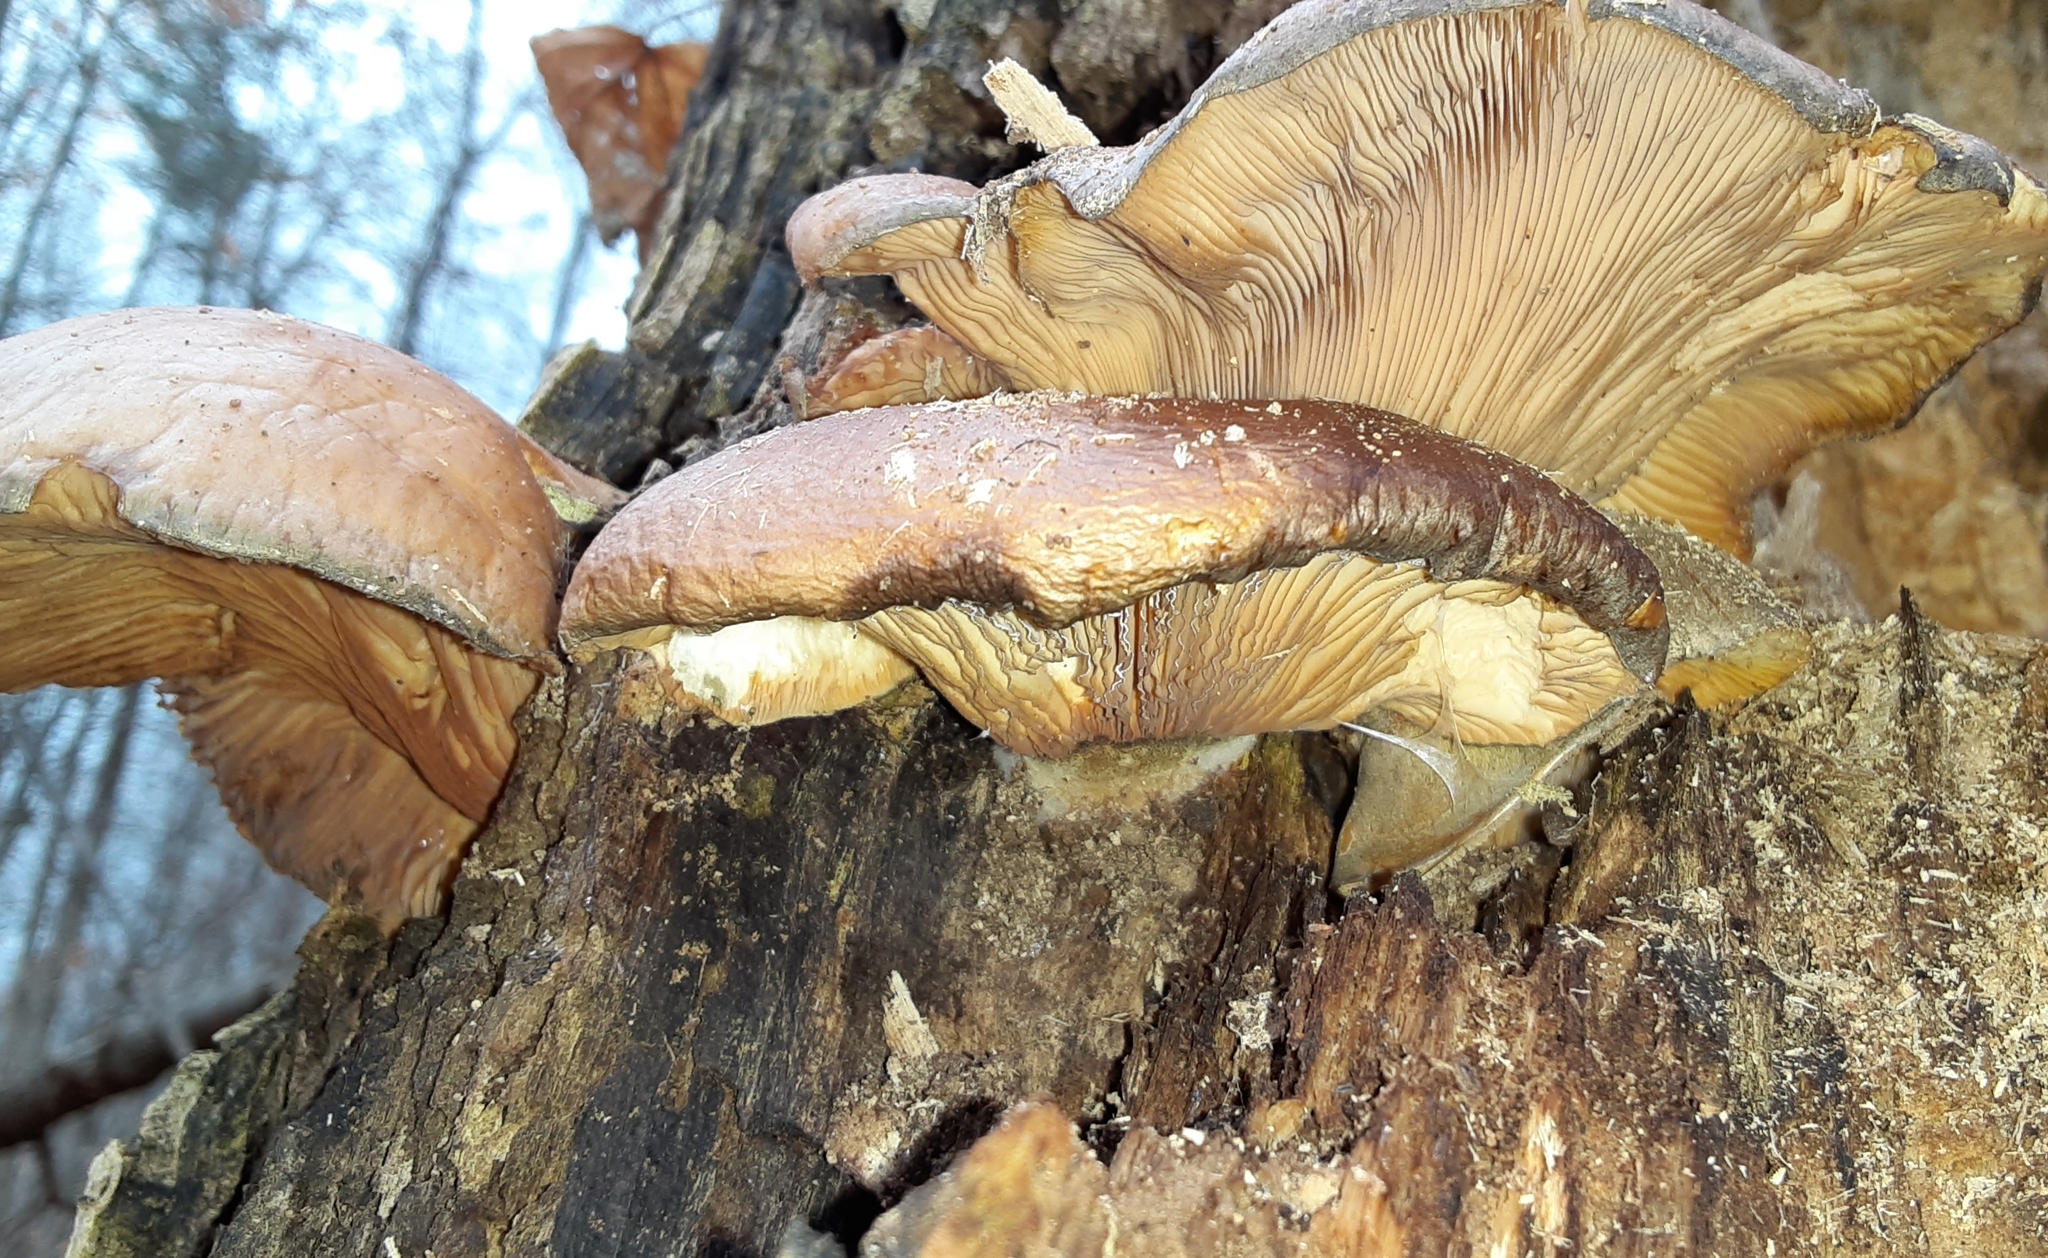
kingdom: Fungi
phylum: Basidiomycota
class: Agaricomycetes
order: Agaricales
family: Sarcomyxaceae
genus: Sarcomyxa
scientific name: Sarcomyxa serotina
